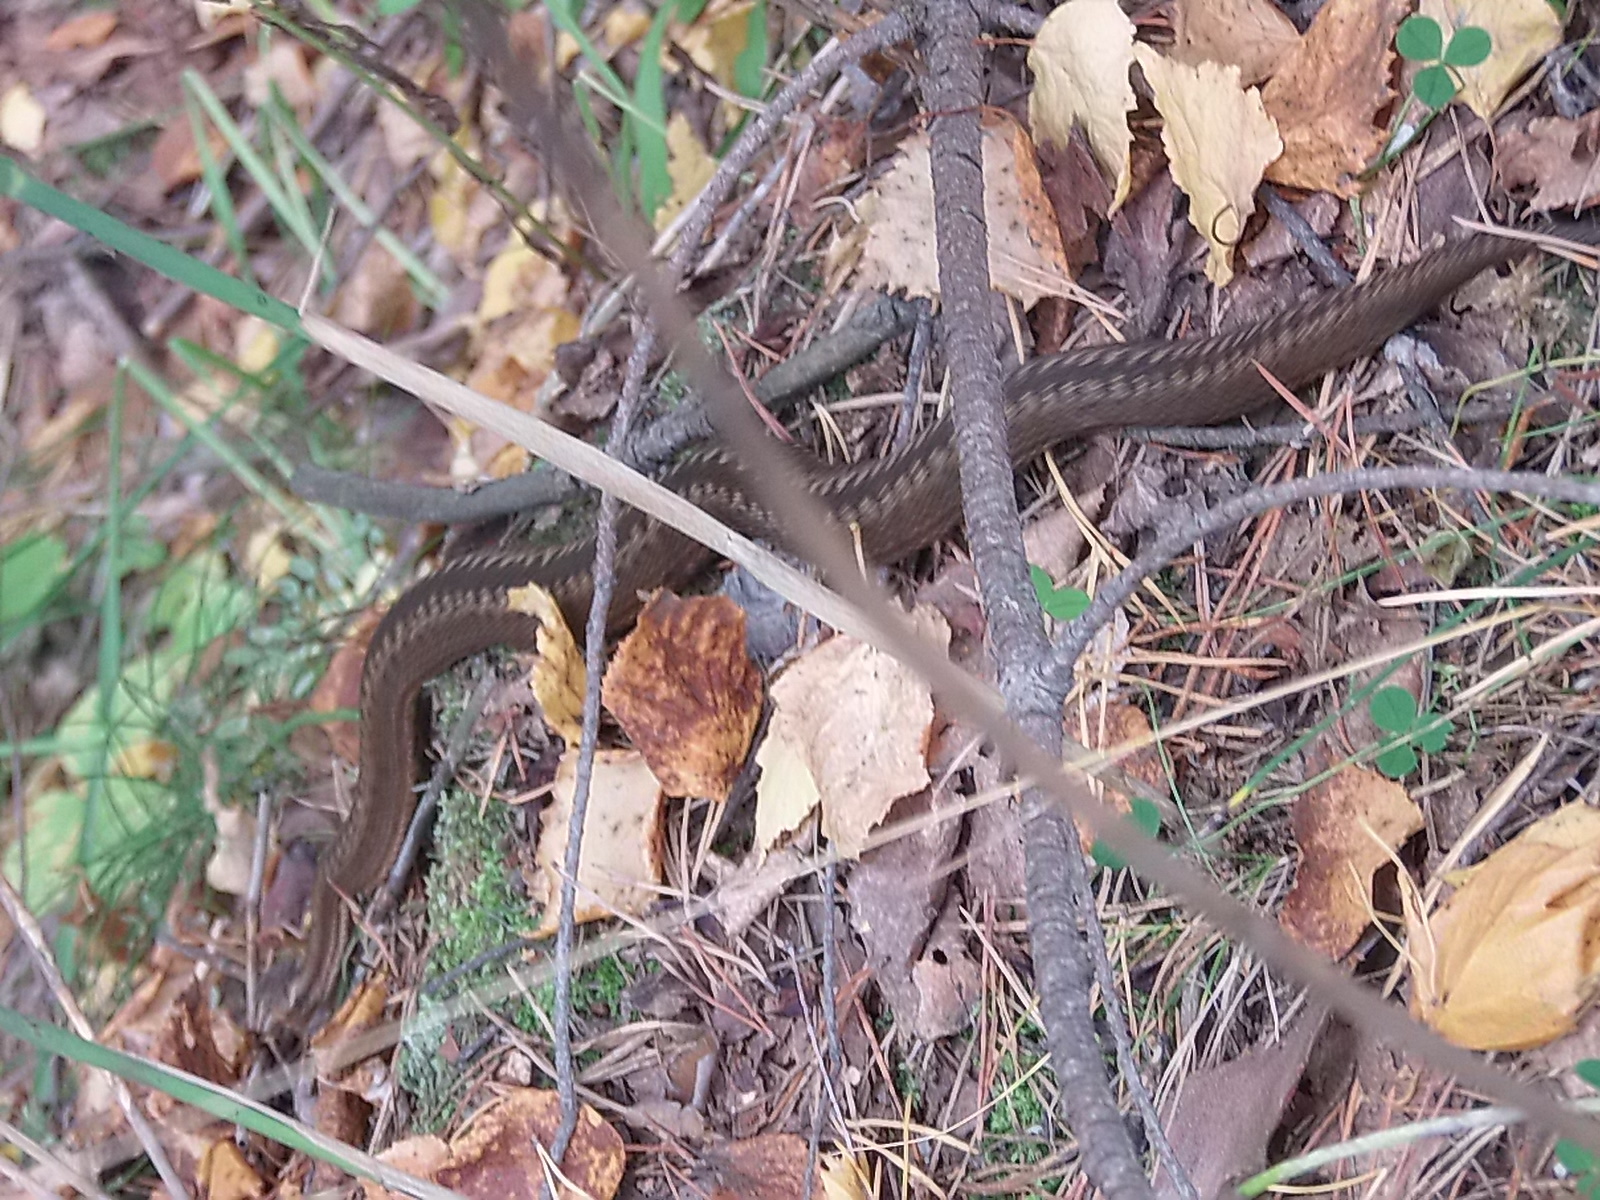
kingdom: Animalia
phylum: Chordata
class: Squamata
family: Viperidae
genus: Vipera
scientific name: Vipera berus
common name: Adder
